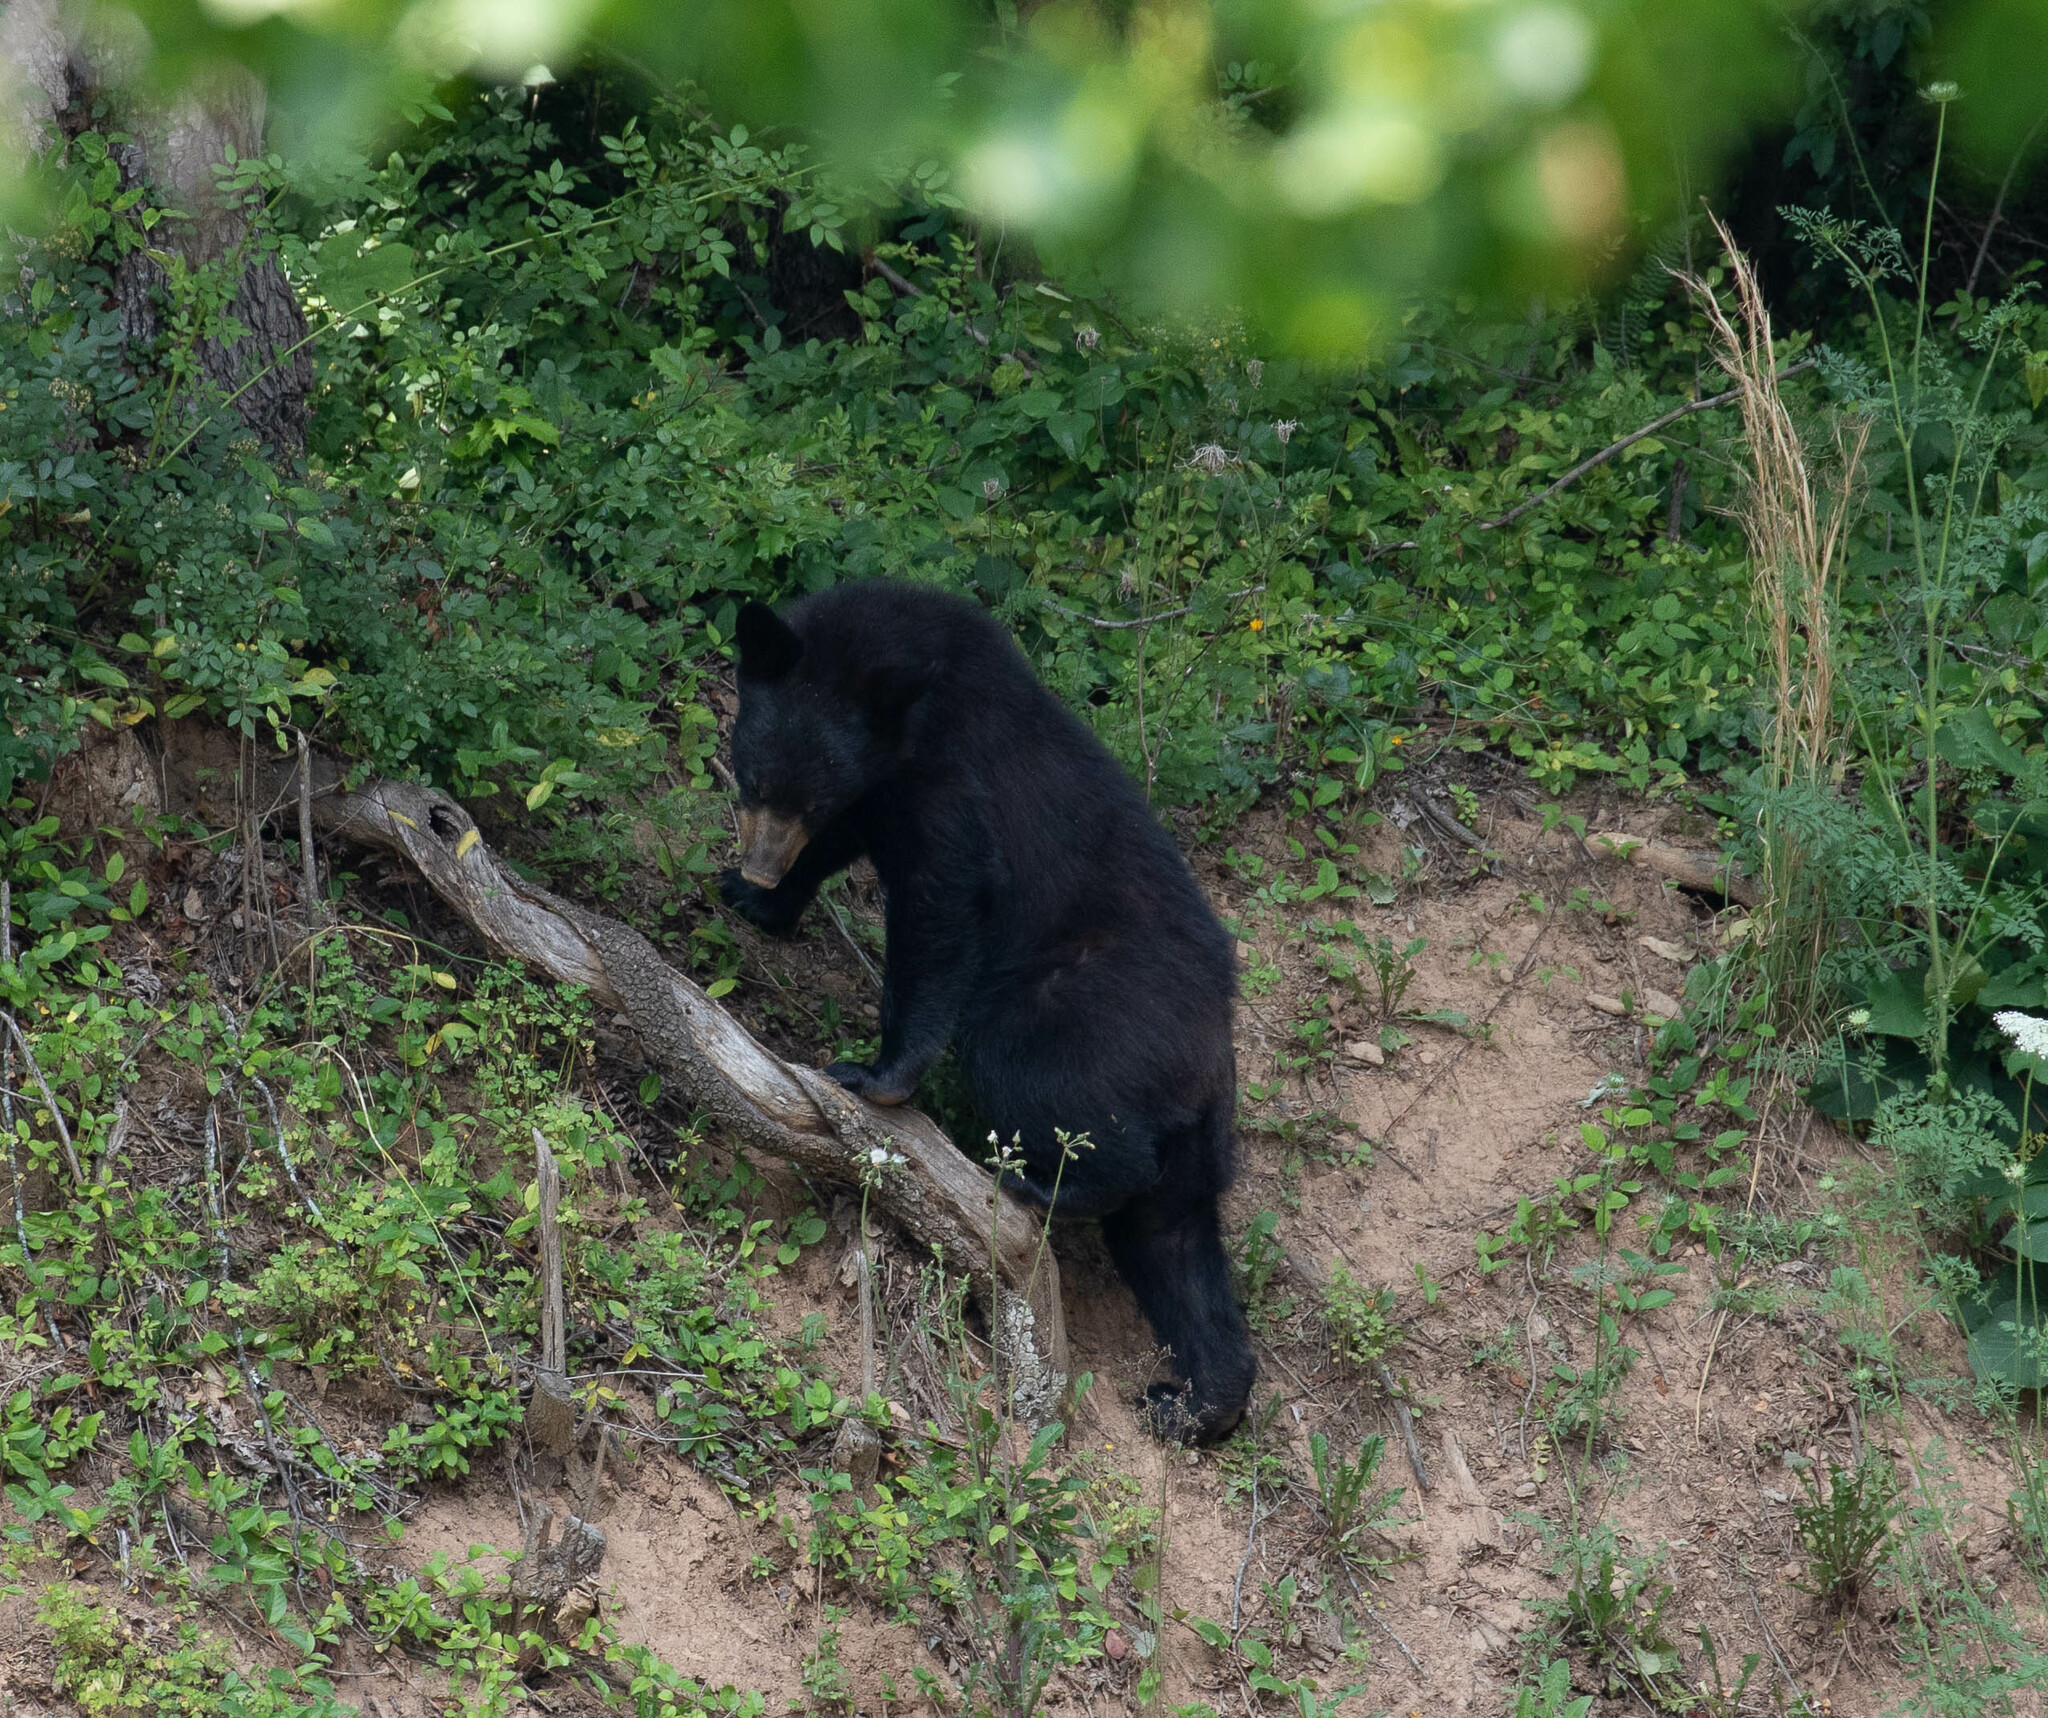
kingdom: Animalia
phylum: Chordata
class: Mammalia
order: Carnivora
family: Ursidae
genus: Ursus
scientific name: Ursus americanus
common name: American black bear
